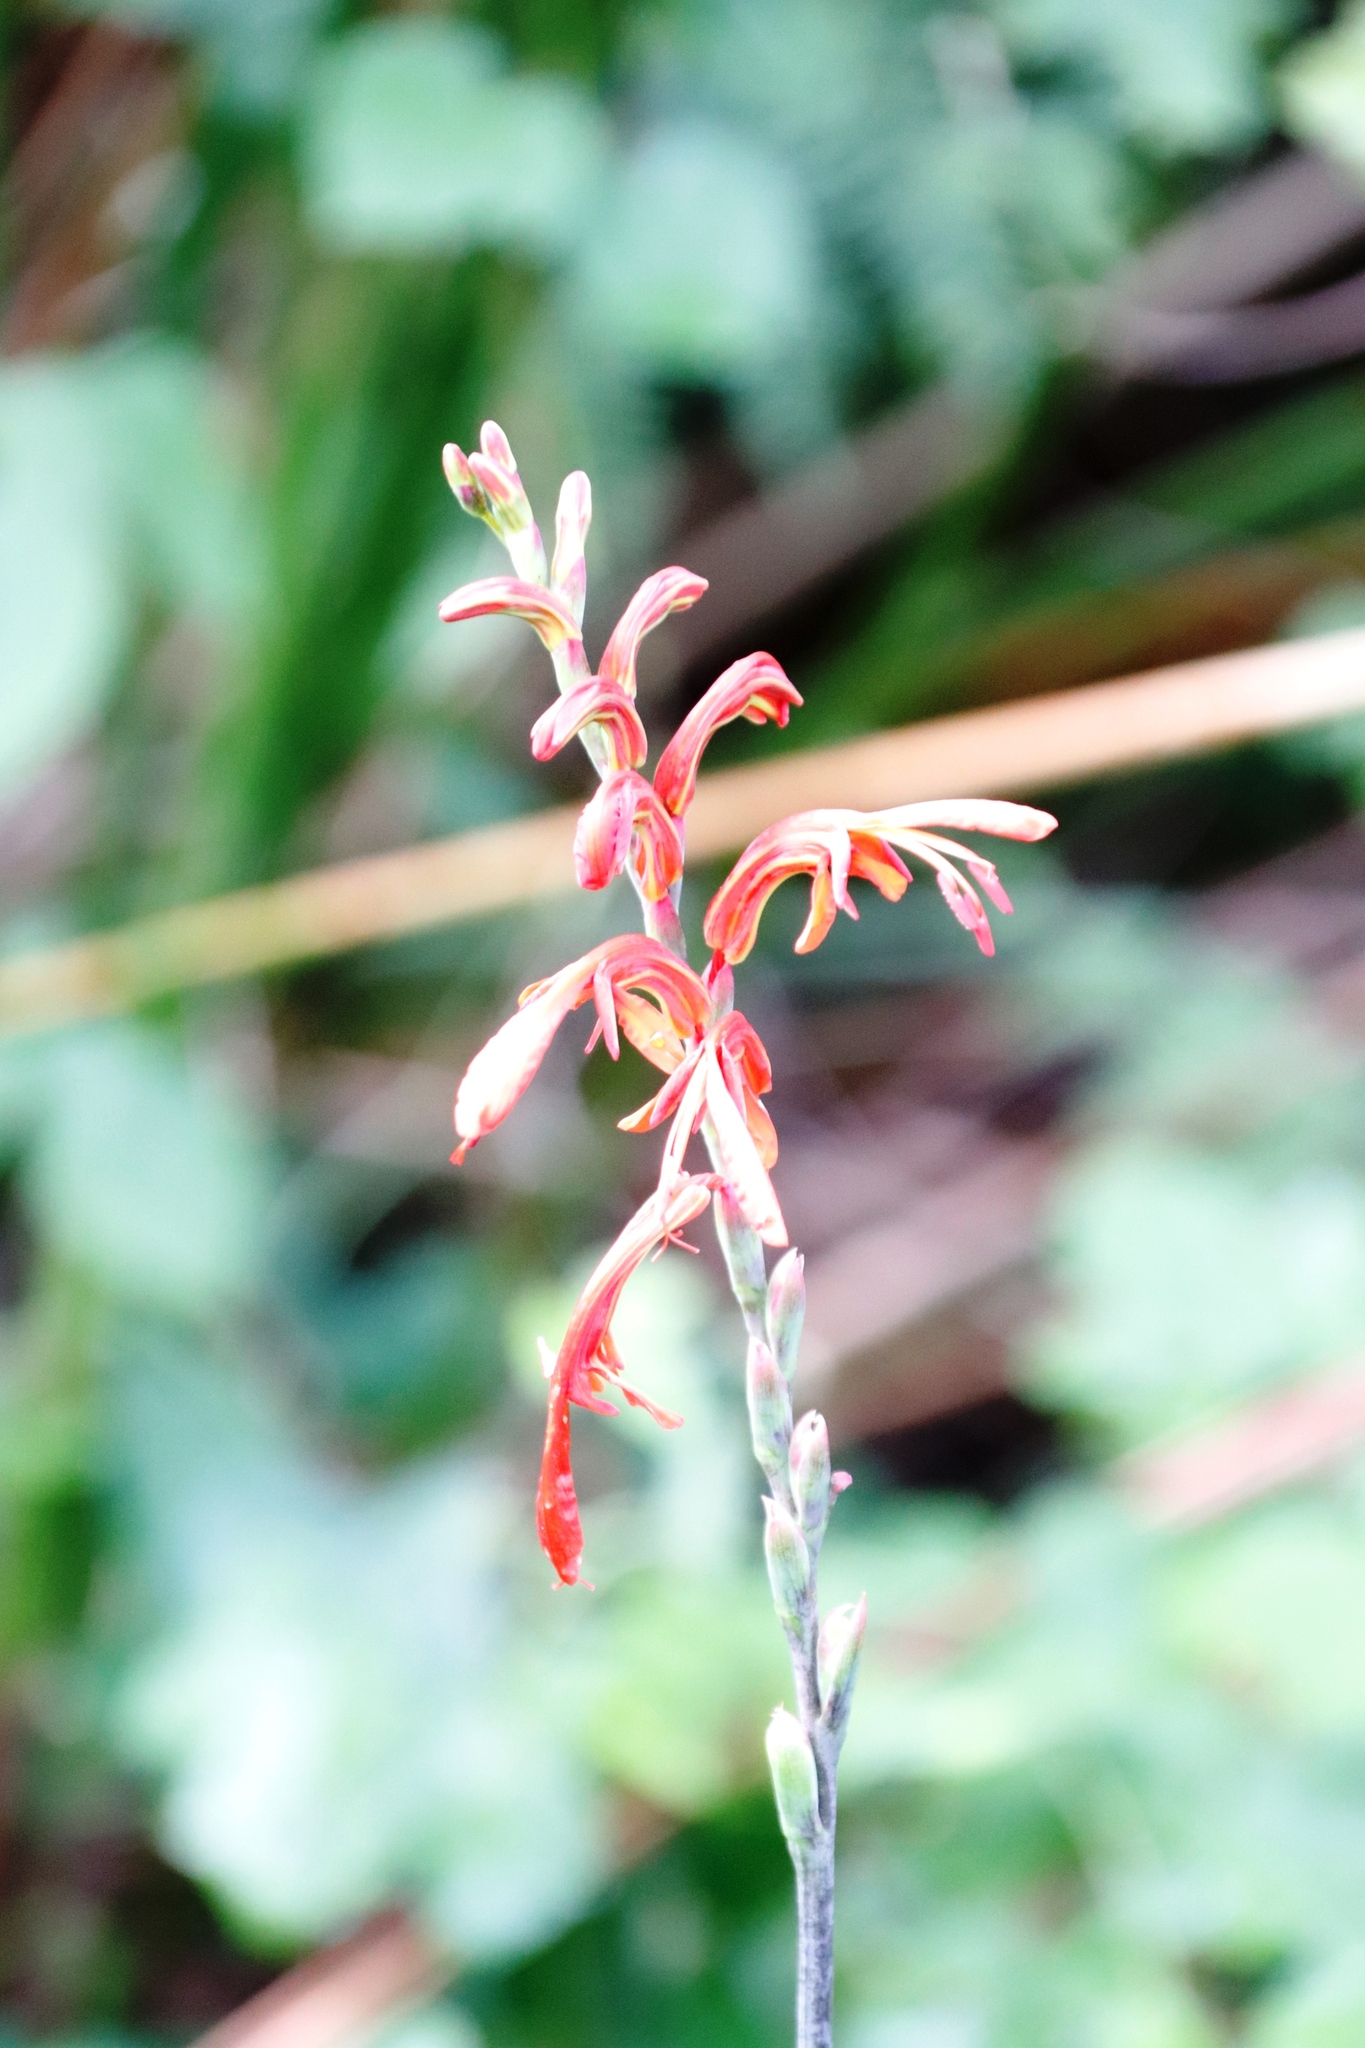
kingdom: Plantae
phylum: Tracheophyta
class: Liliopsida
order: Asparagales
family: Iridaceae
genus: Chasmanthe
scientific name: Chasmanthe aethiopica
